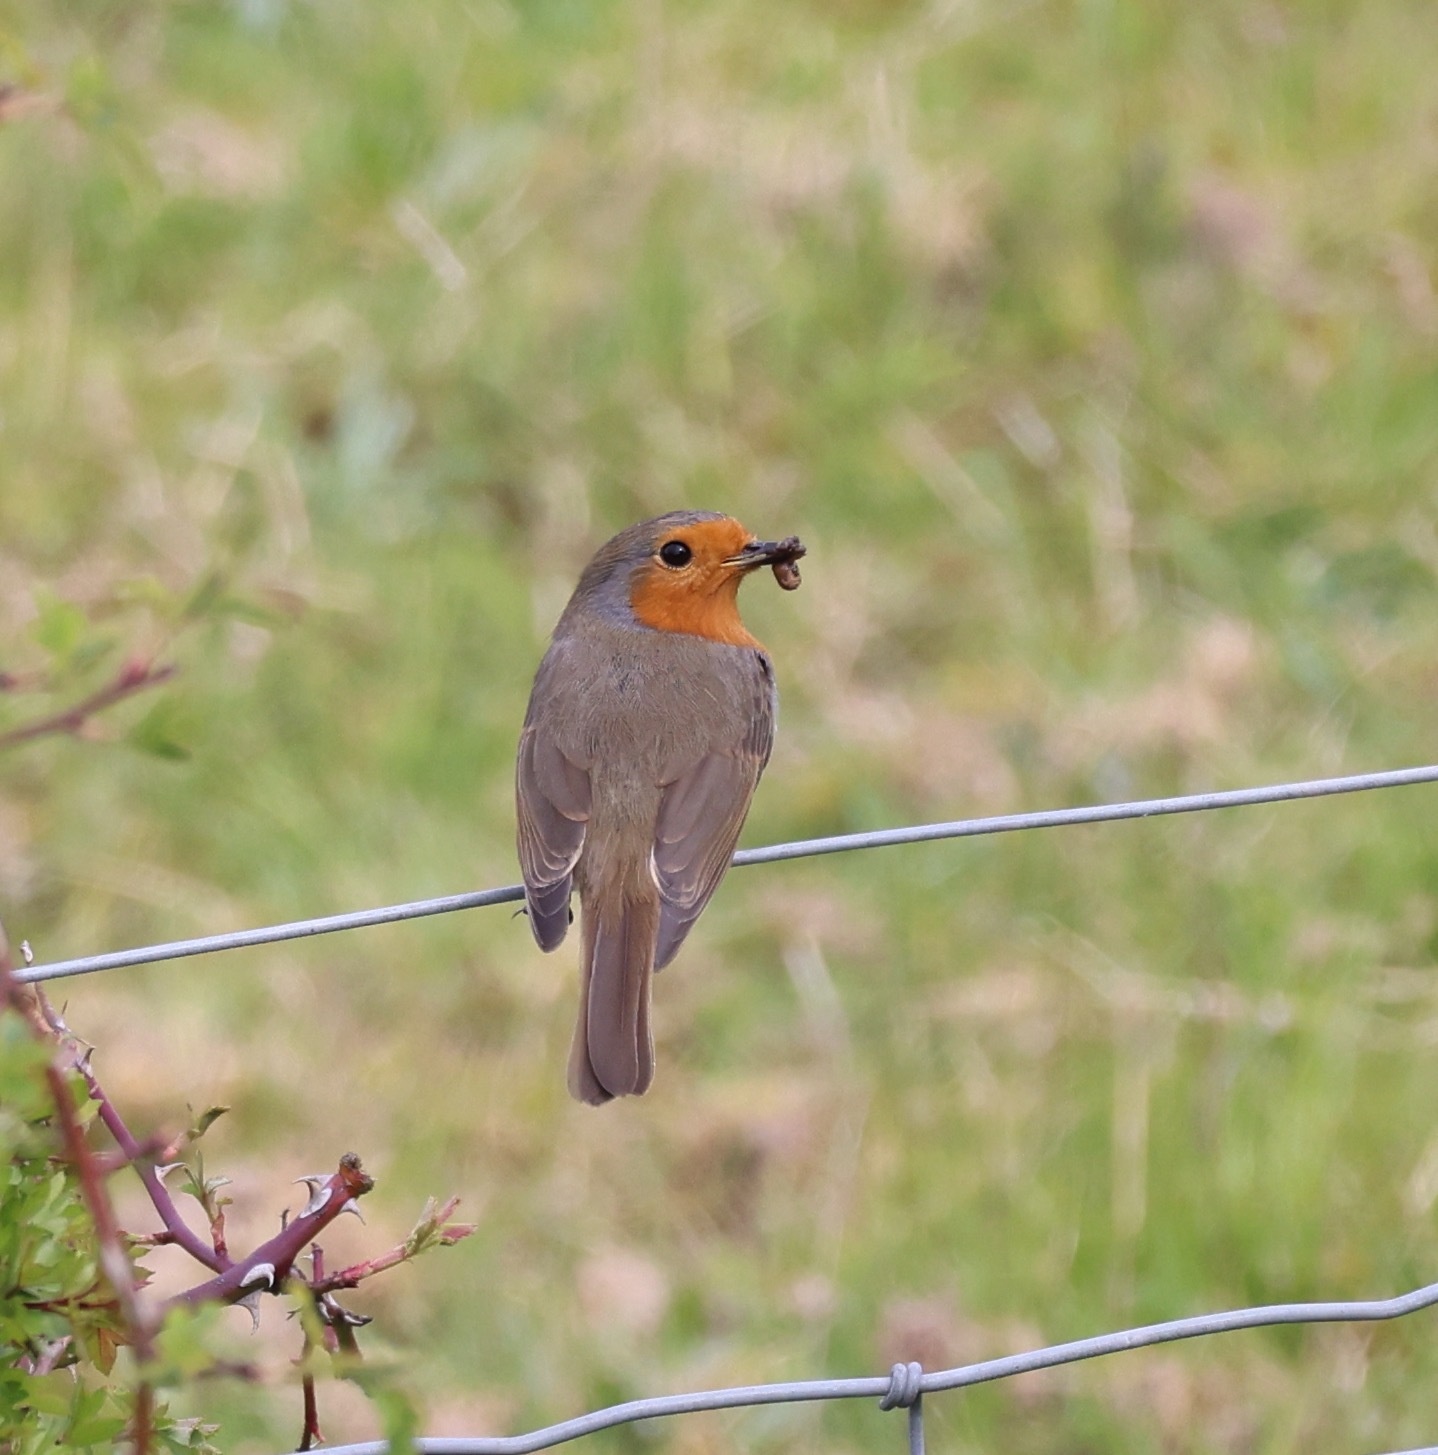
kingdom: Animalia
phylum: Chordata
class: Aves
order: Passeriformes
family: Muscicapidae
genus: Erithacus
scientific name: Erithacus rubecula
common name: European robin
